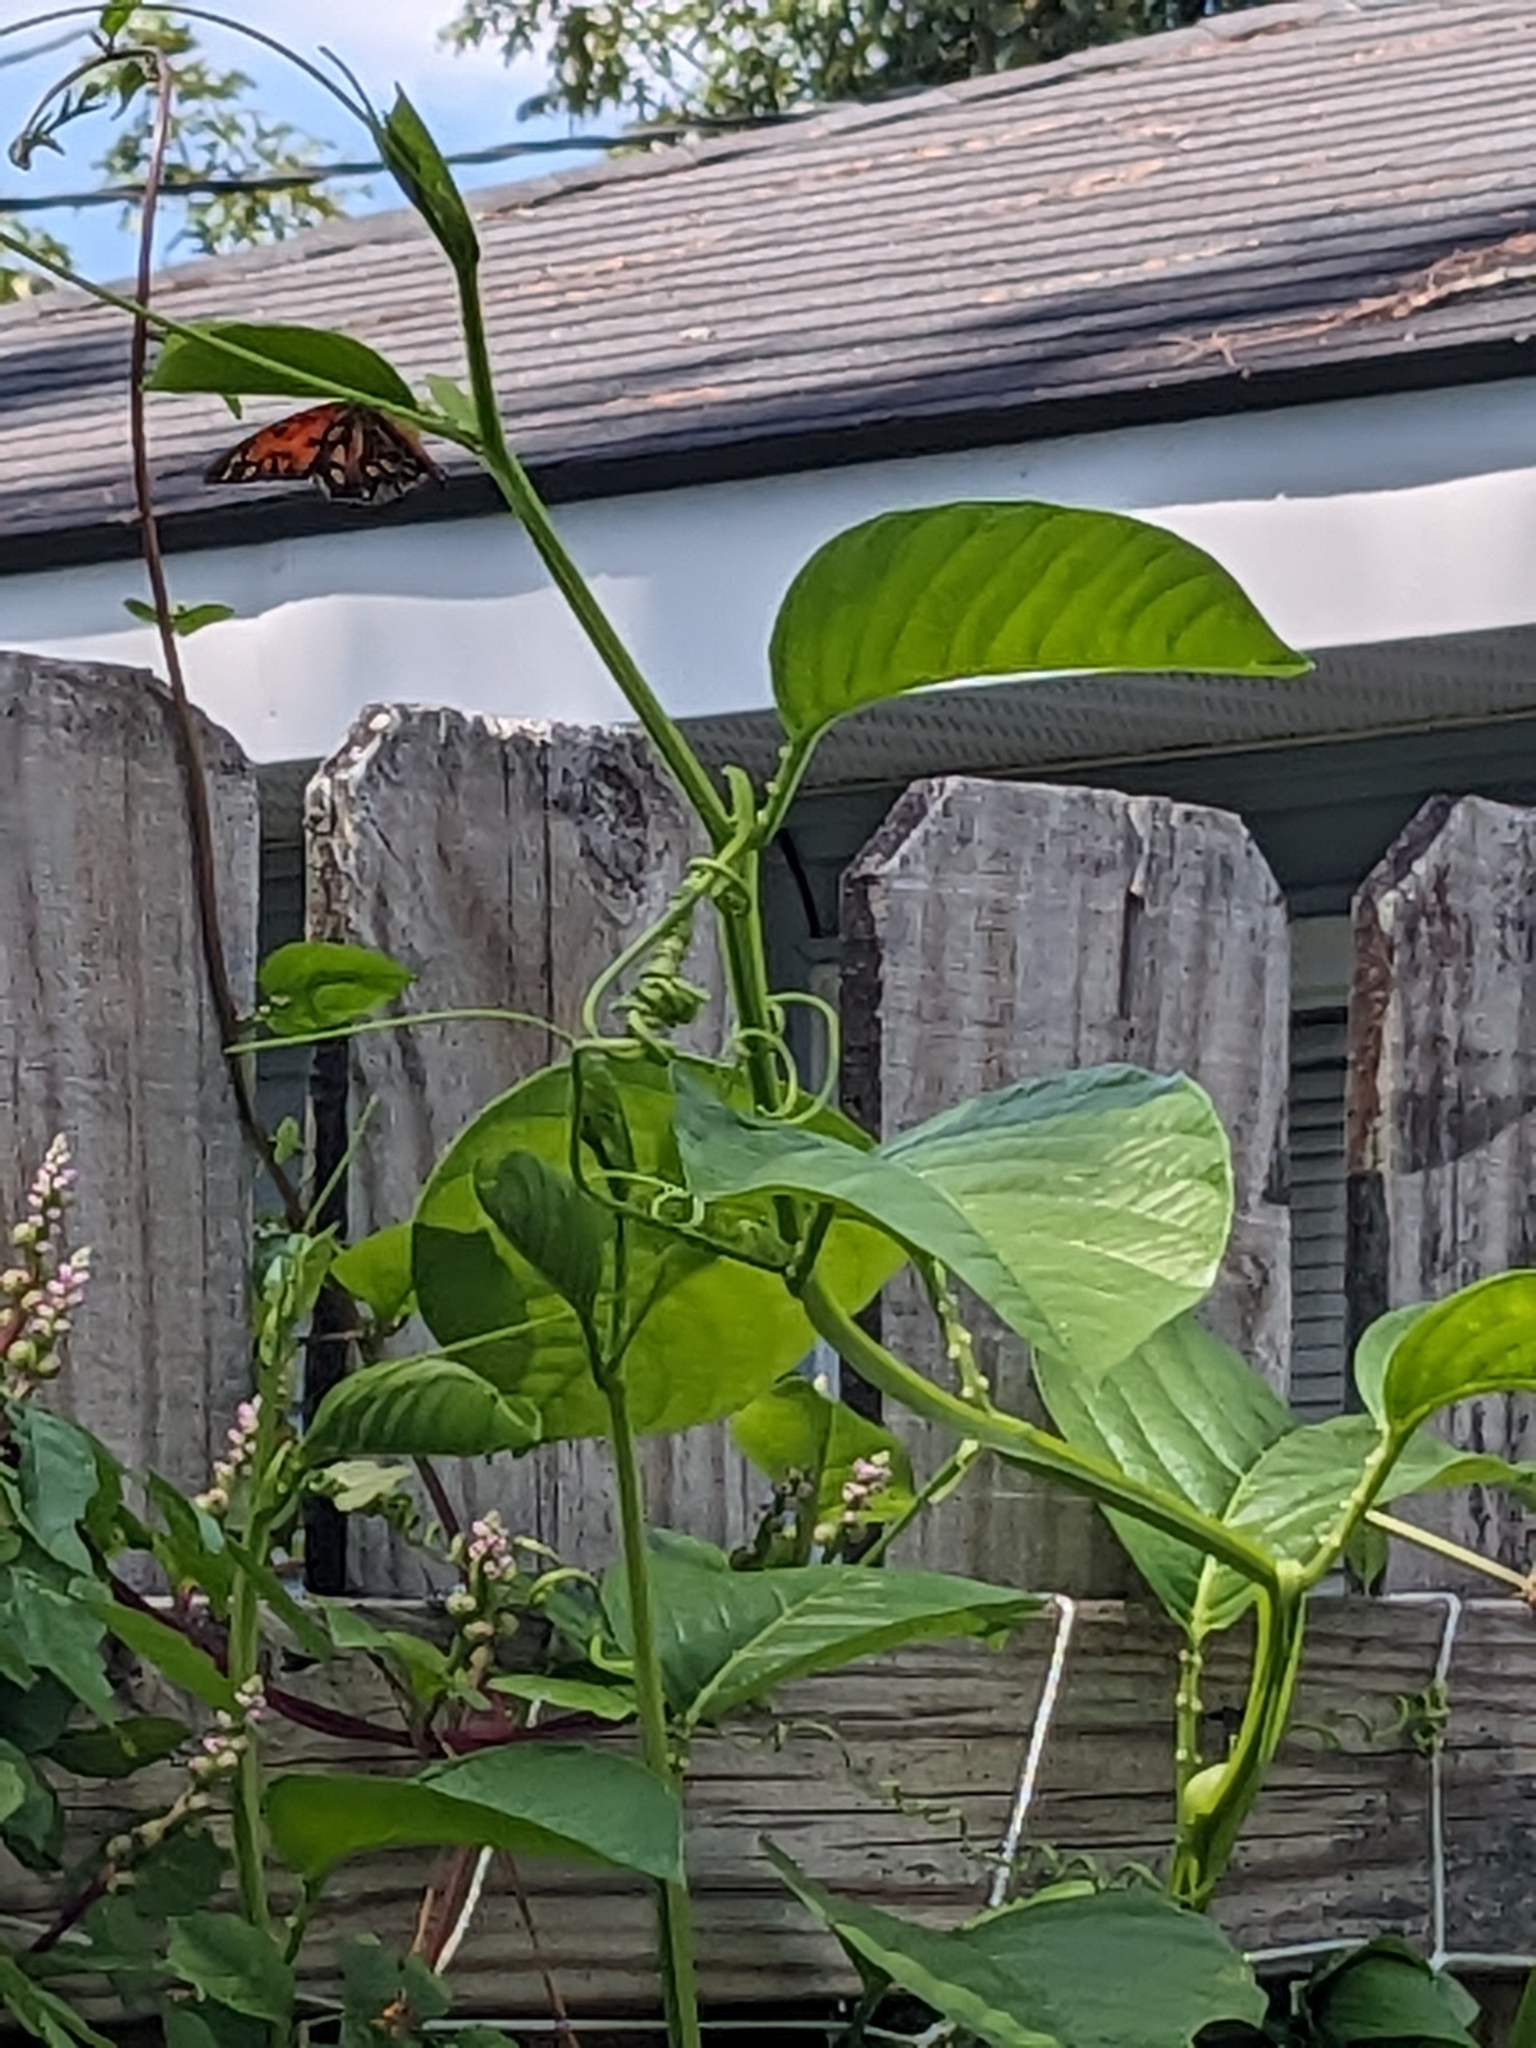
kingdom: Animalia
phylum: Arthropoda
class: Insecta
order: Lepidoptera
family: Nymphalidae
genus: Dione
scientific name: Dione vanillae
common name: Gulf fritillary
